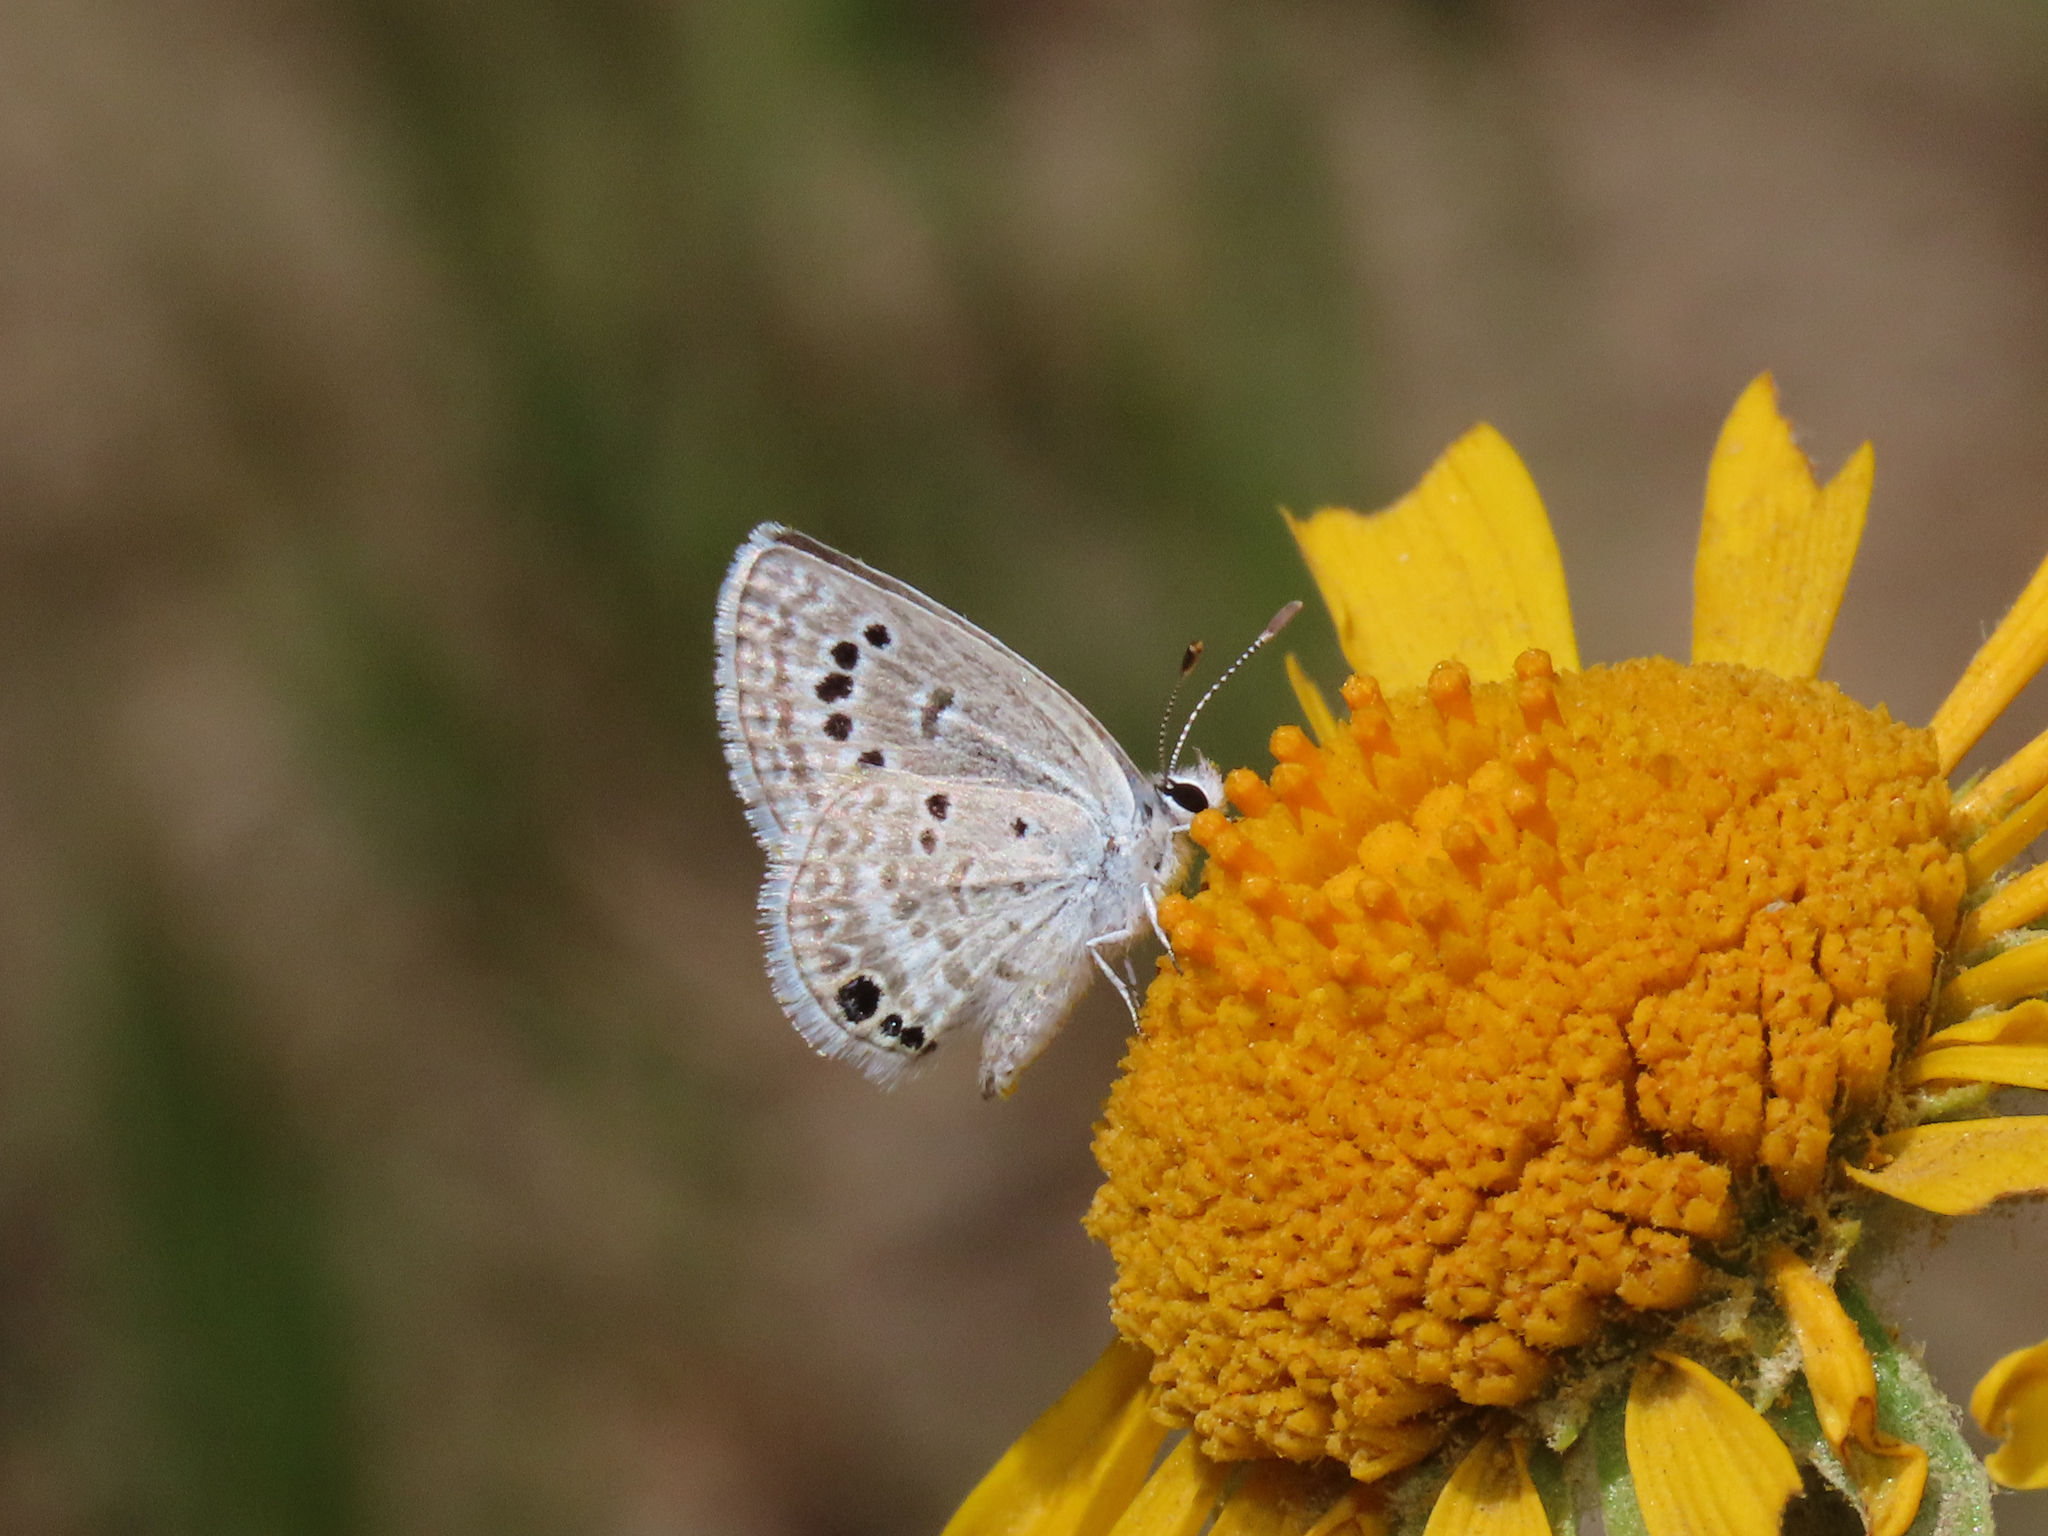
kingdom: Animalia
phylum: Arthropoda
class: Insecta
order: Lepidoptera
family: Lycaenidae
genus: Echinargus
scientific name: Echinargus isola
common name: Reakirt's blue
